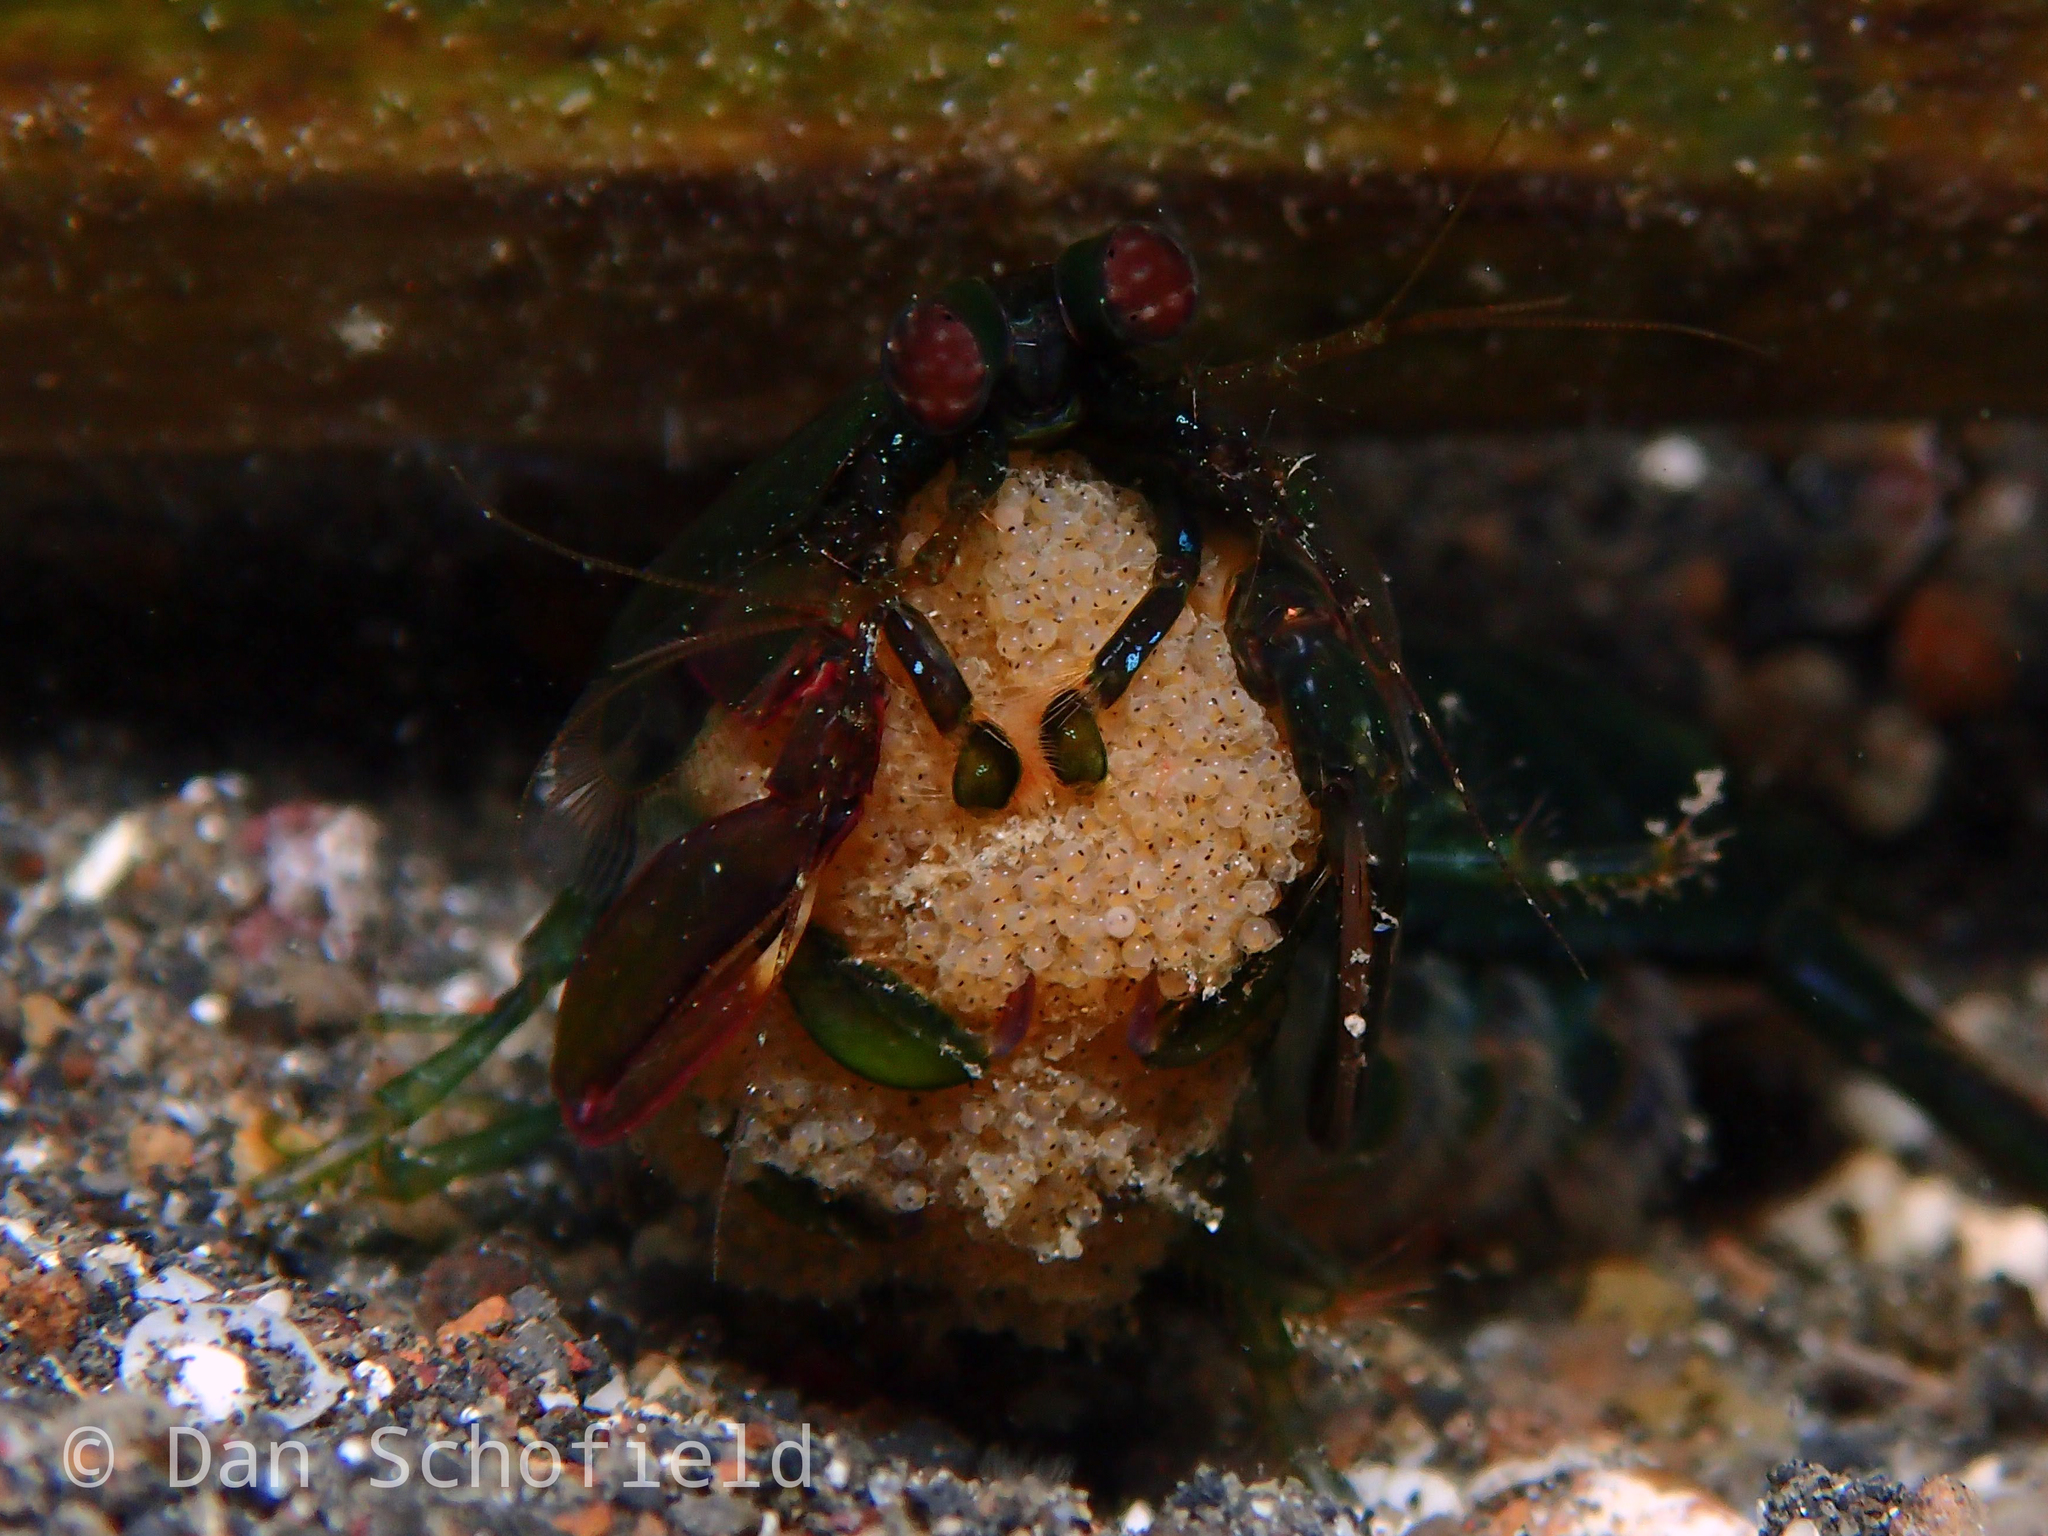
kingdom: Animalia
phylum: Arthropoda
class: Malacostraca
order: Stomatopoda
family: Pseudosquillidae
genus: Pseudosquilla
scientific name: Pseudosquilla ciliata
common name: Ciliated false squilla
